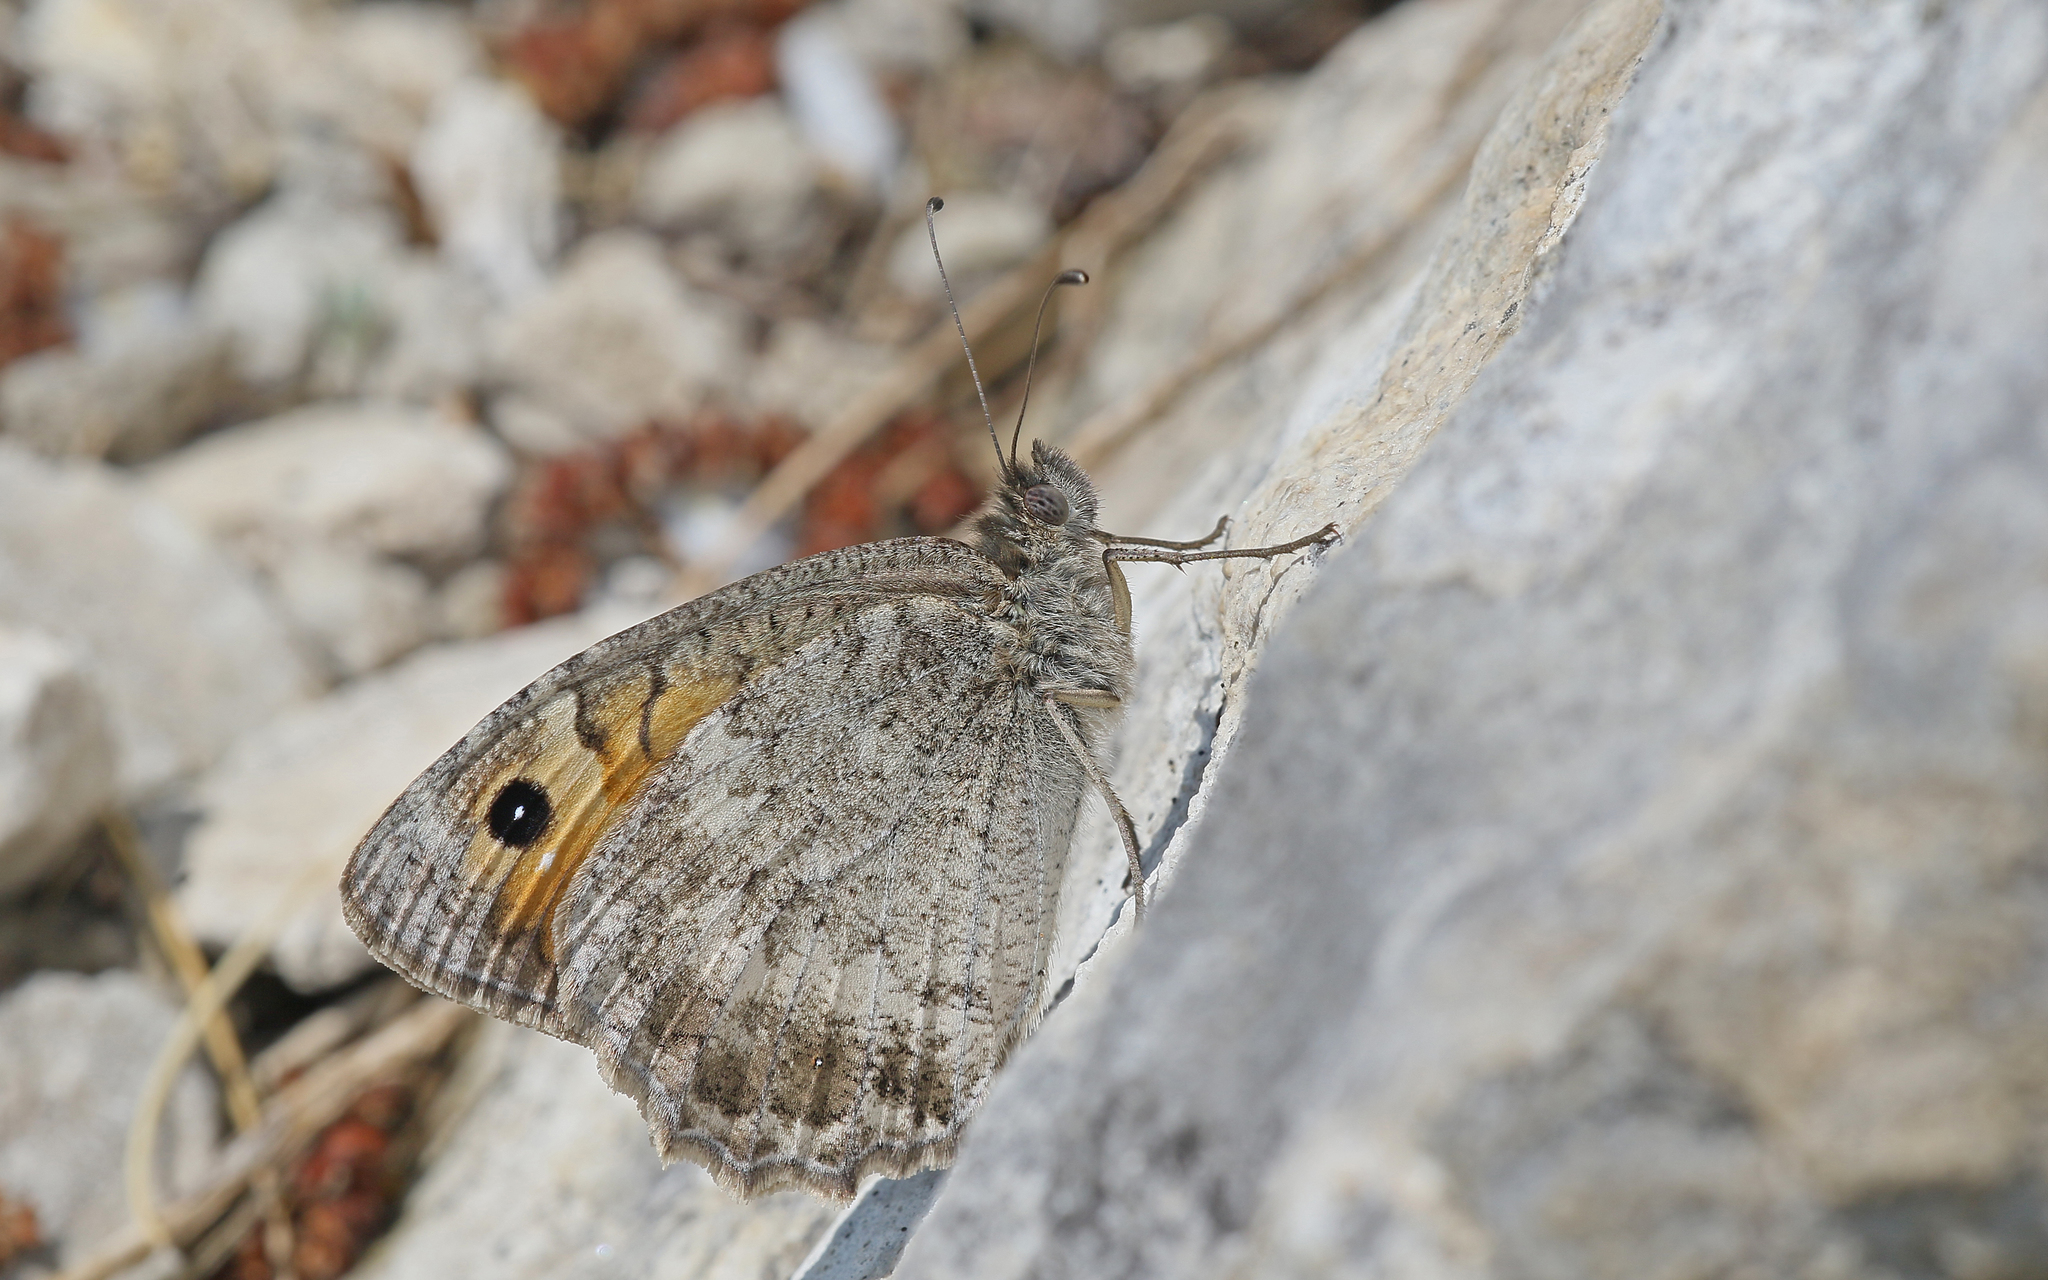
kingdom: Animalia
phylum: Arthropoda
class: Insecta
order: Lepidoptera
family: Nymphalidae
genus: Pseudochazara
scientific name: Pseudochazara orestes
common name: Dils’ grayling
